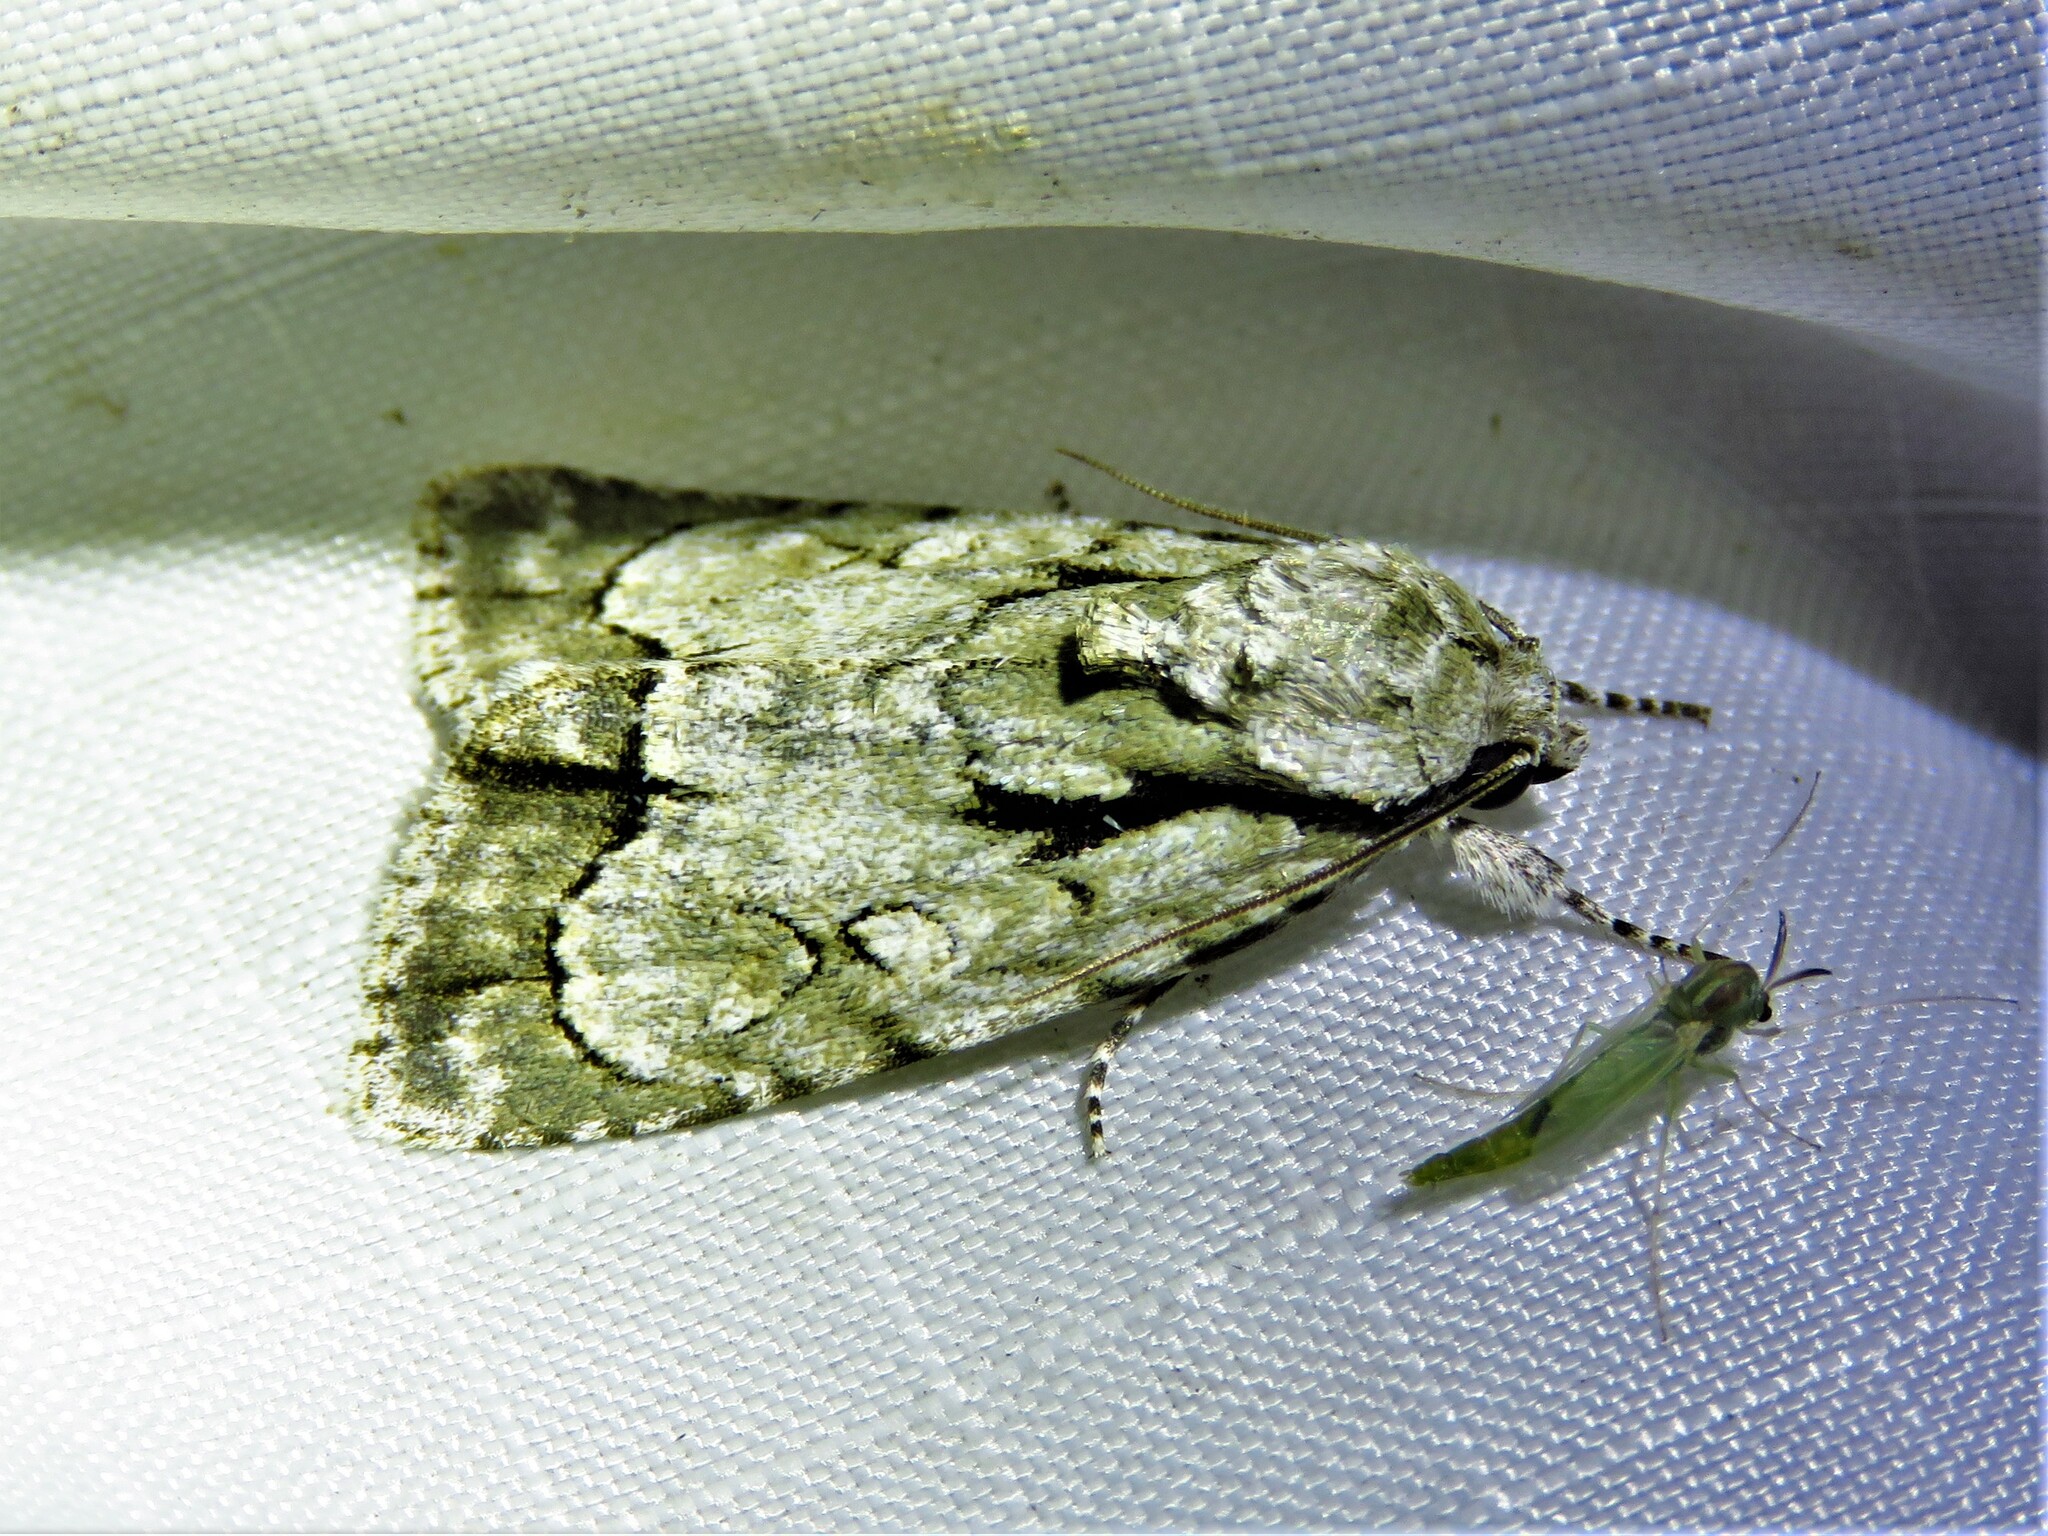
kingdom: Animalia
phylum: Arthropoda
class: Insecta
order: Lepidoptera
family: Noctuidae
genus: Acronicta
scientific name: Acronicta vinnula
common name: Delightful dagger
